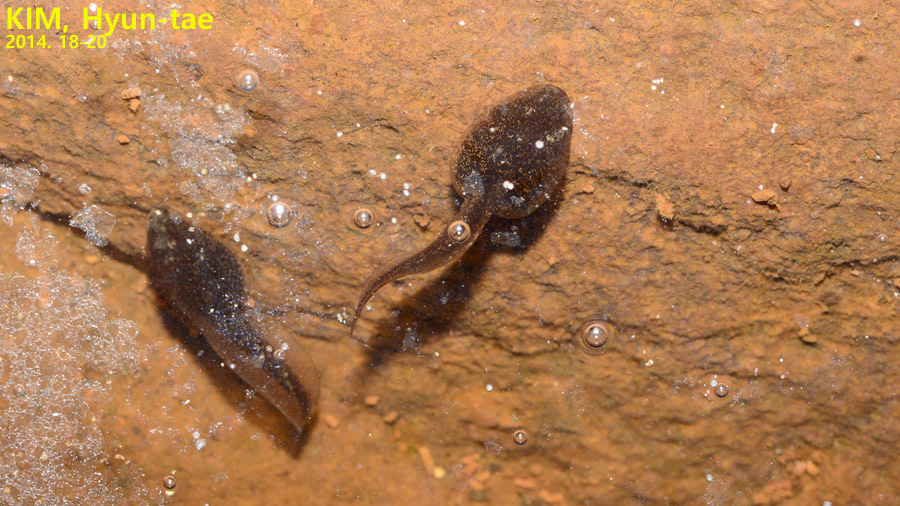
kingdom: Animalia
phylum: Chordata
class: Amphibia
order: Anura
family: Ranidae
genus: Rana
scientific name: Rana huanrenensis
